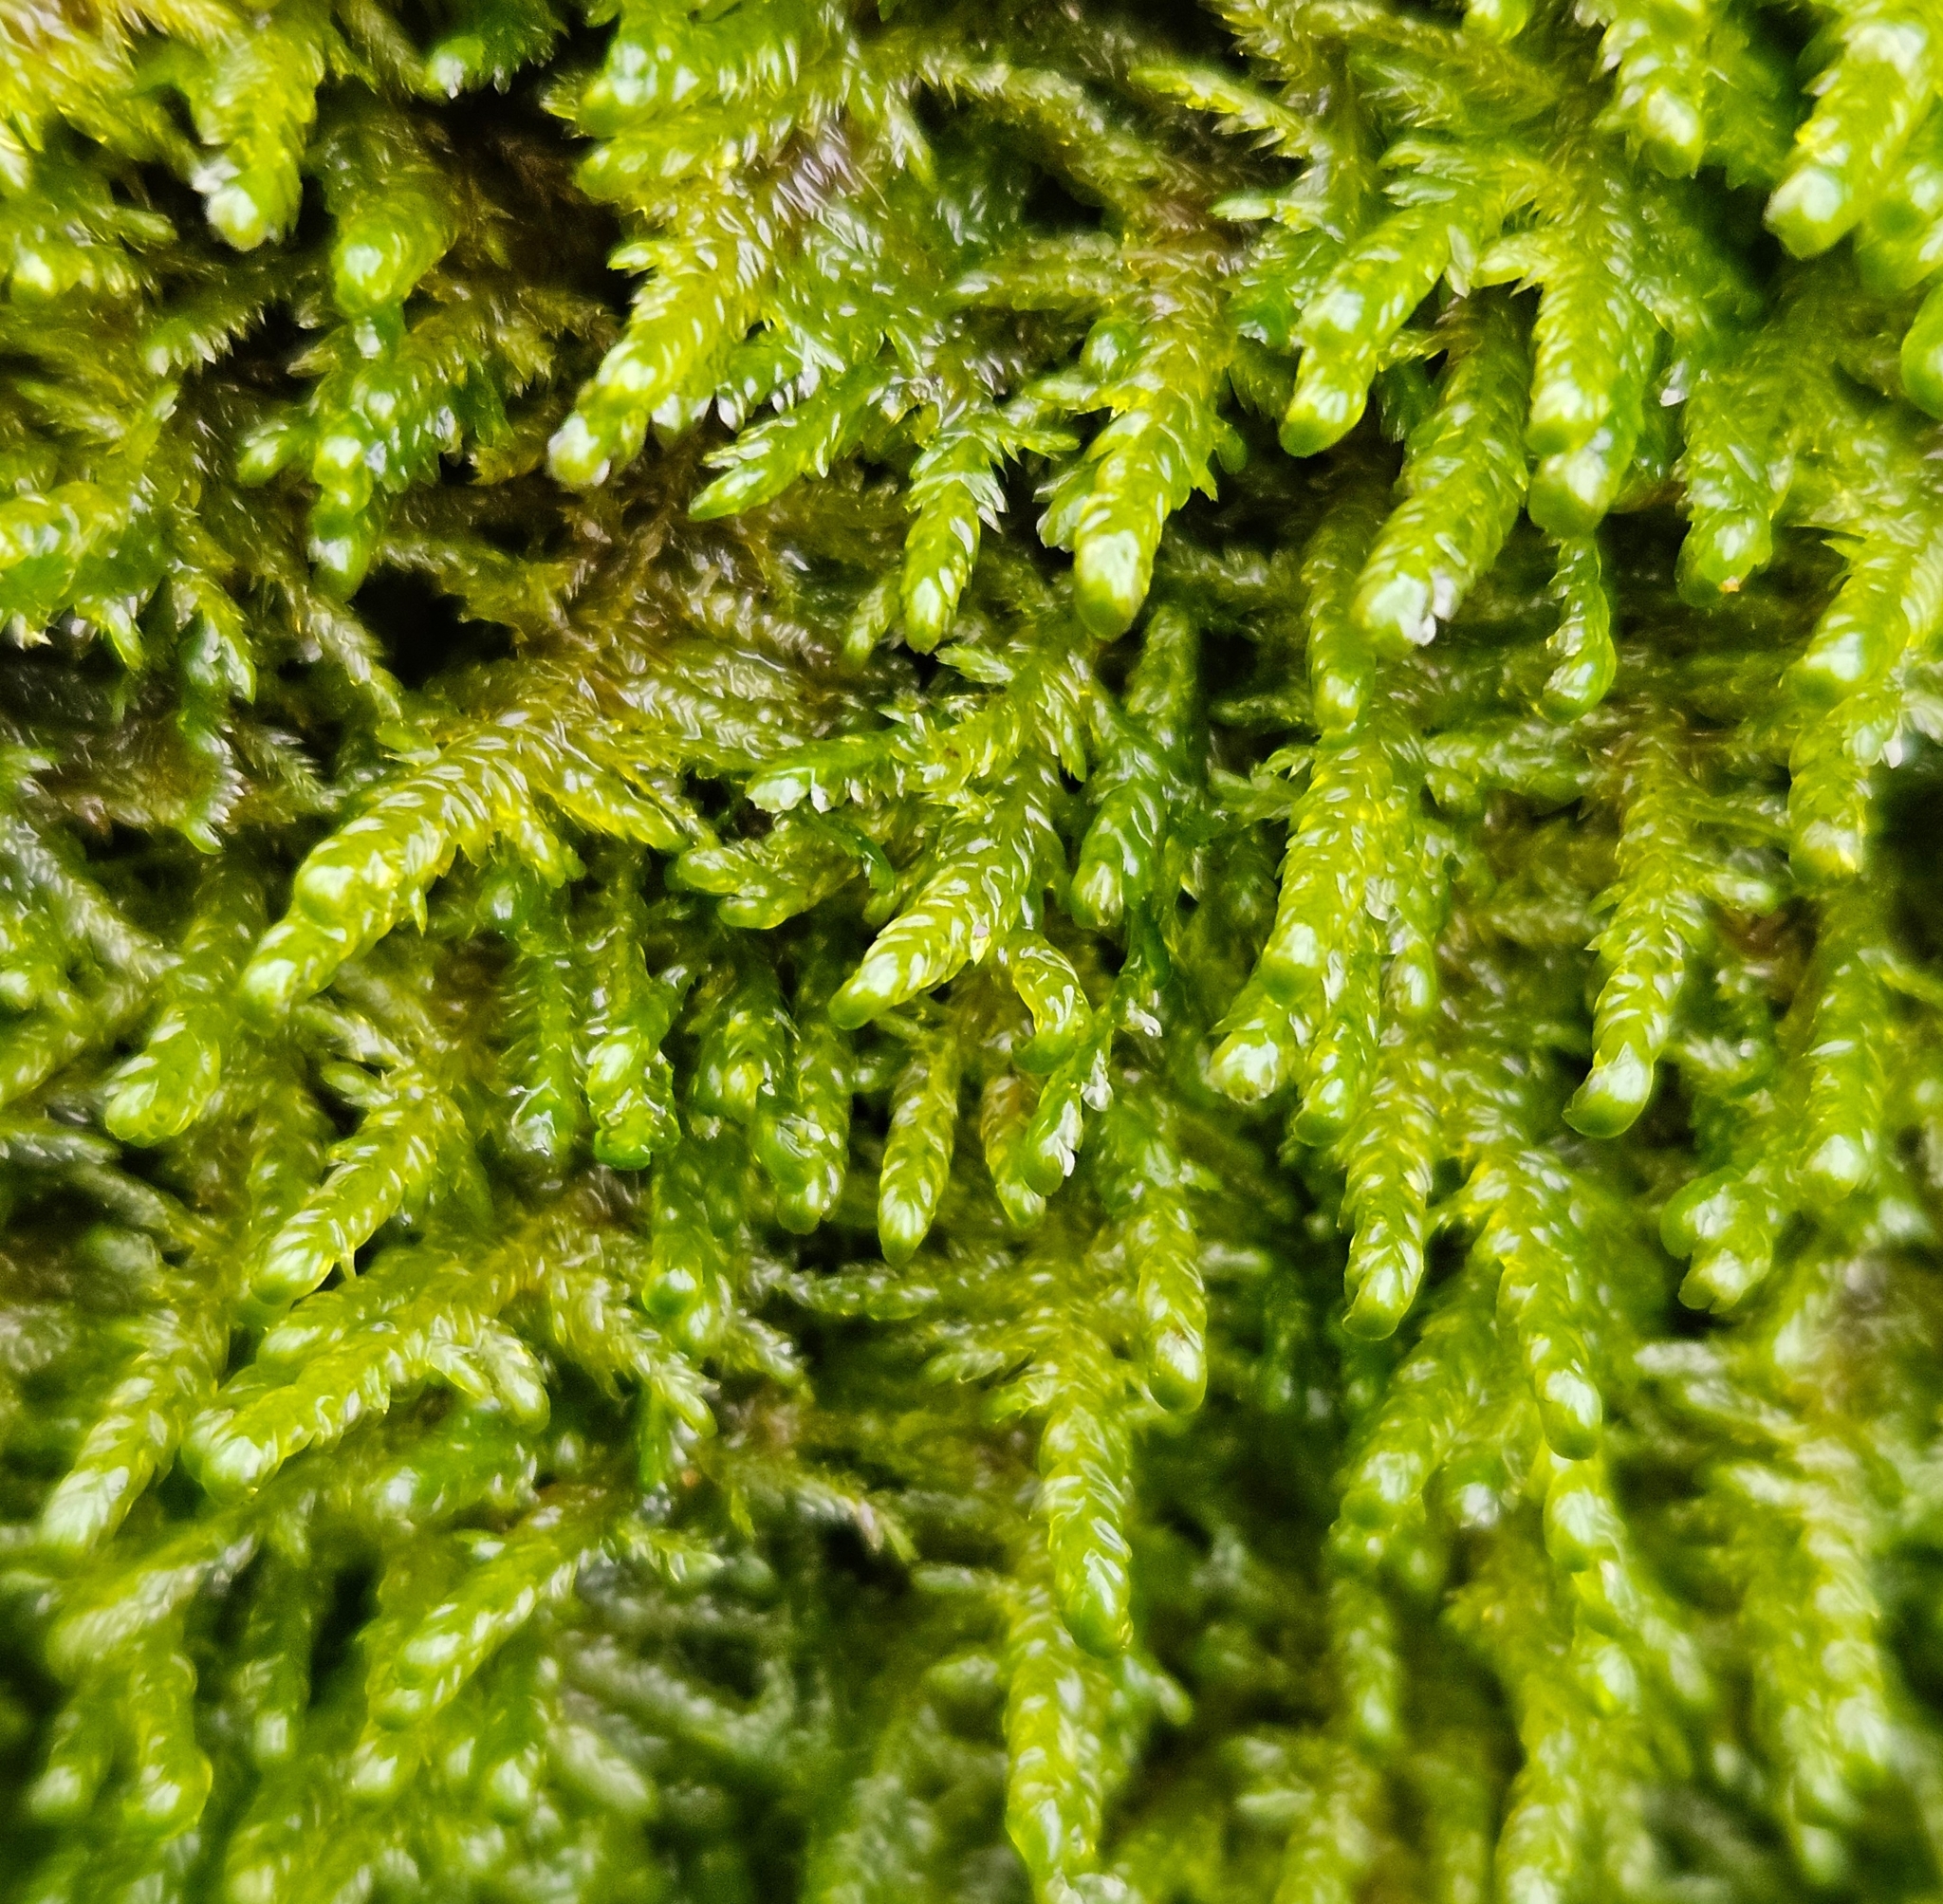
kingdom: Plantae
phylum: Bryophyta
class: Bryopsida
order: Hypnales
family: Neckeraceae
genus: Alleniella
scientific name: Alleniella complanata
